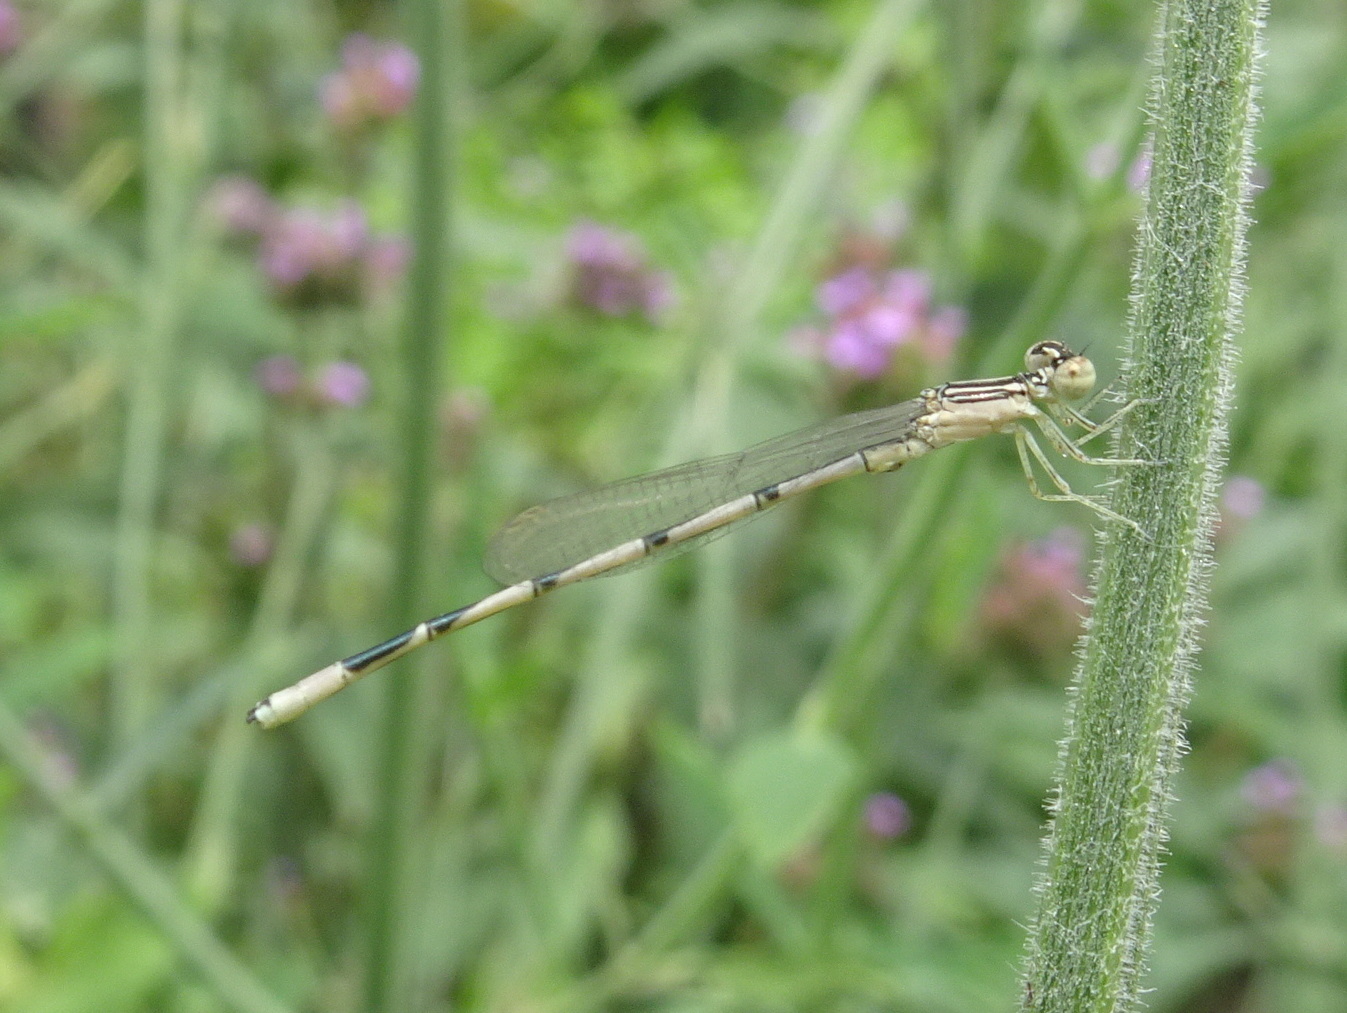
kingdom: Animalia
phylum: Arthropoda
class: Insecta
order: Odonata
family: Coenagrionidae
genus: Enallagma
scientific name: Enallagma basidens
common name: Double-striped bluet
